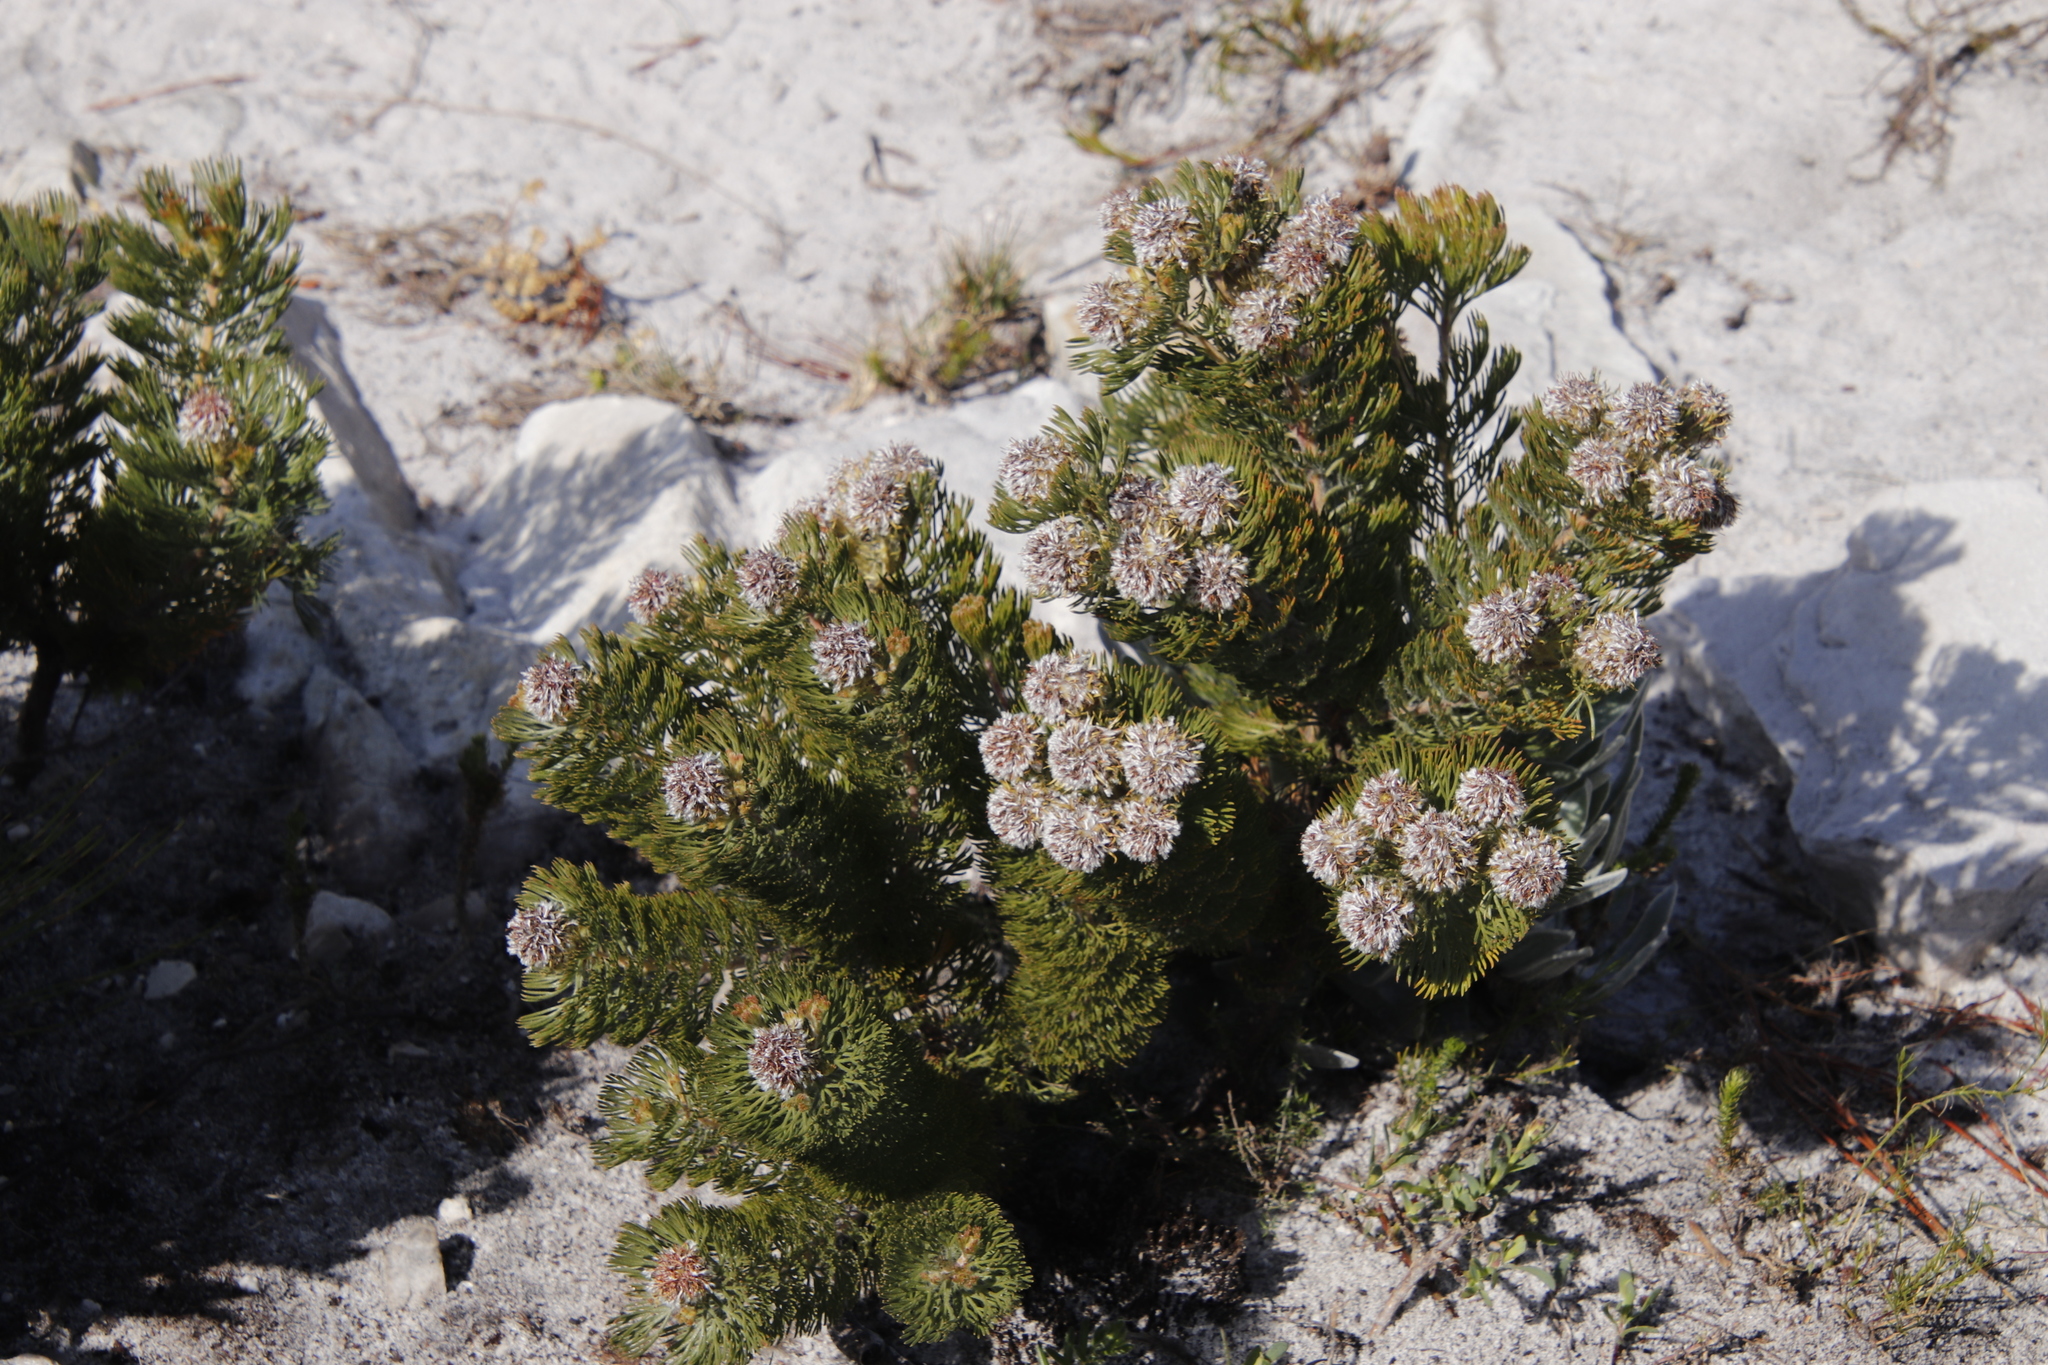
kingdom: Plantae
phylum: Tracheophyta
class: Magnoliopsida
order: Proteales
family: Proteaceae
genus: Serruria
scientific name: Serruria
